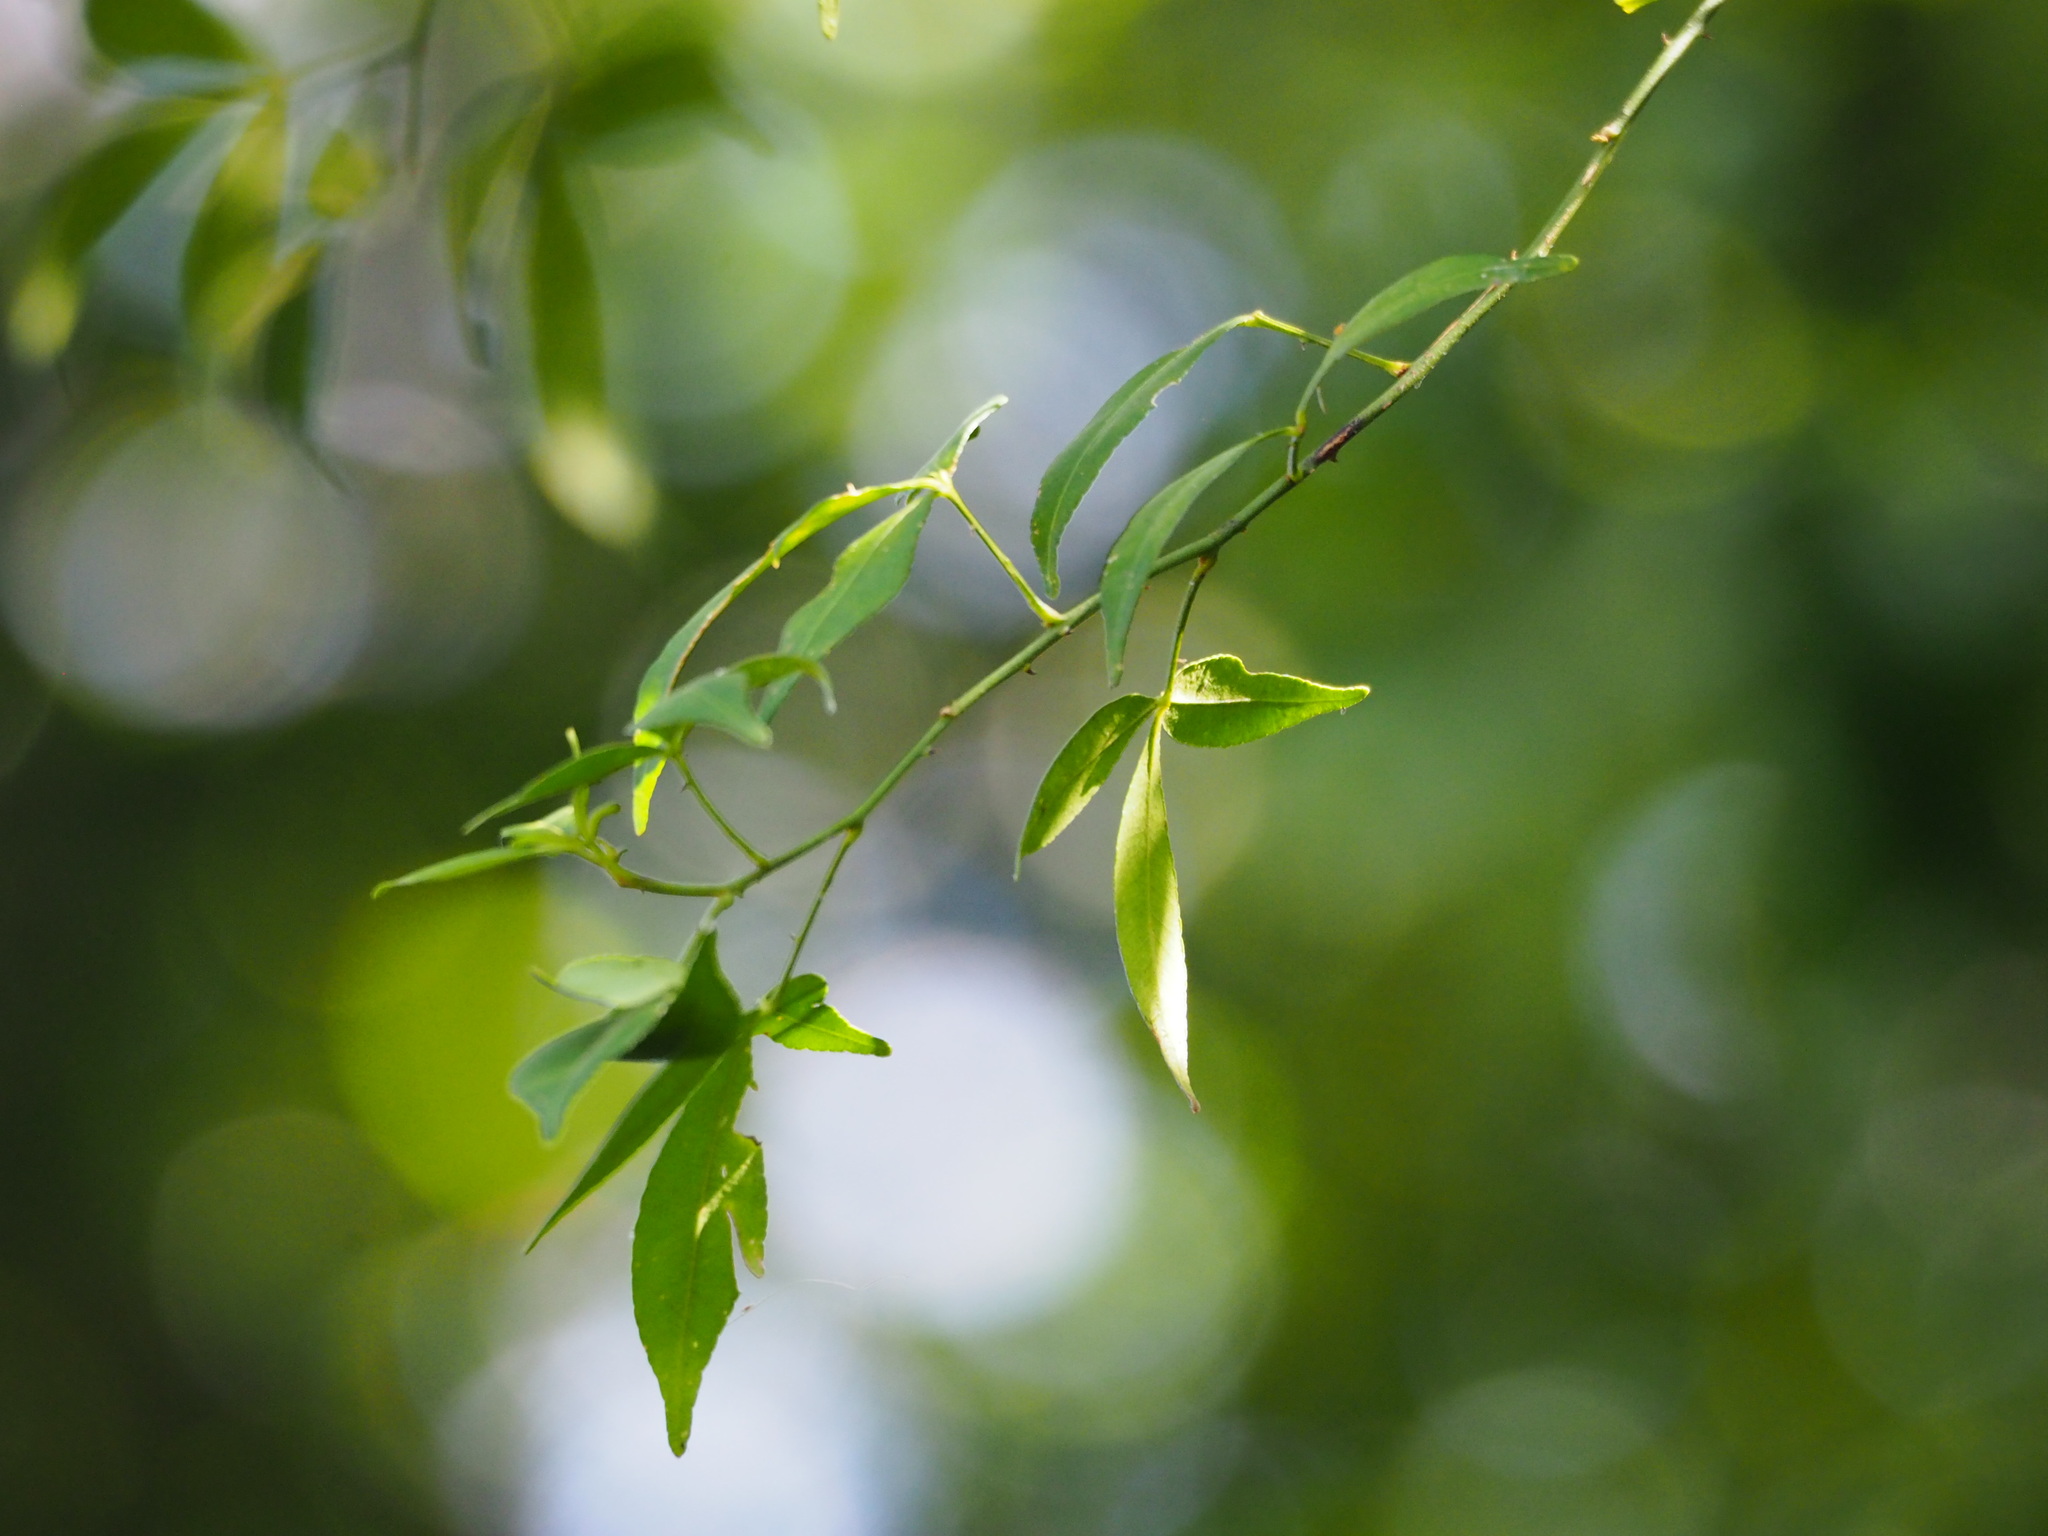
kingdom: Plantae
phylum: Tracheophyta
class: Magnoliopsida
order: Sapindales
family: Rutaceae
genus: Zanthoxylum
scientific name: Zanthoxylum asiaticum
